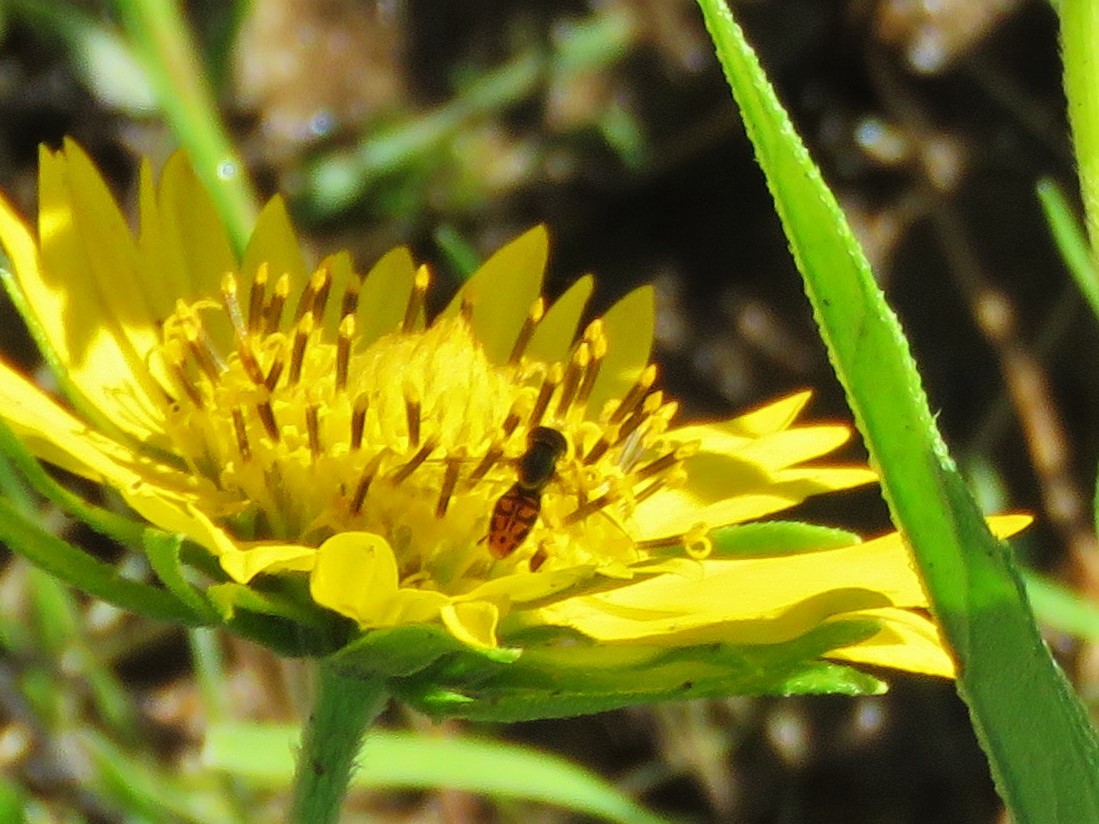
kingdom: Animalia
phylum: Arthropoda
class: Insecta
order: Diptera
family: Syrphidae
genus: Toxomerus
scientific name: Toxomerus marginatus
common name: Syrphid fly
